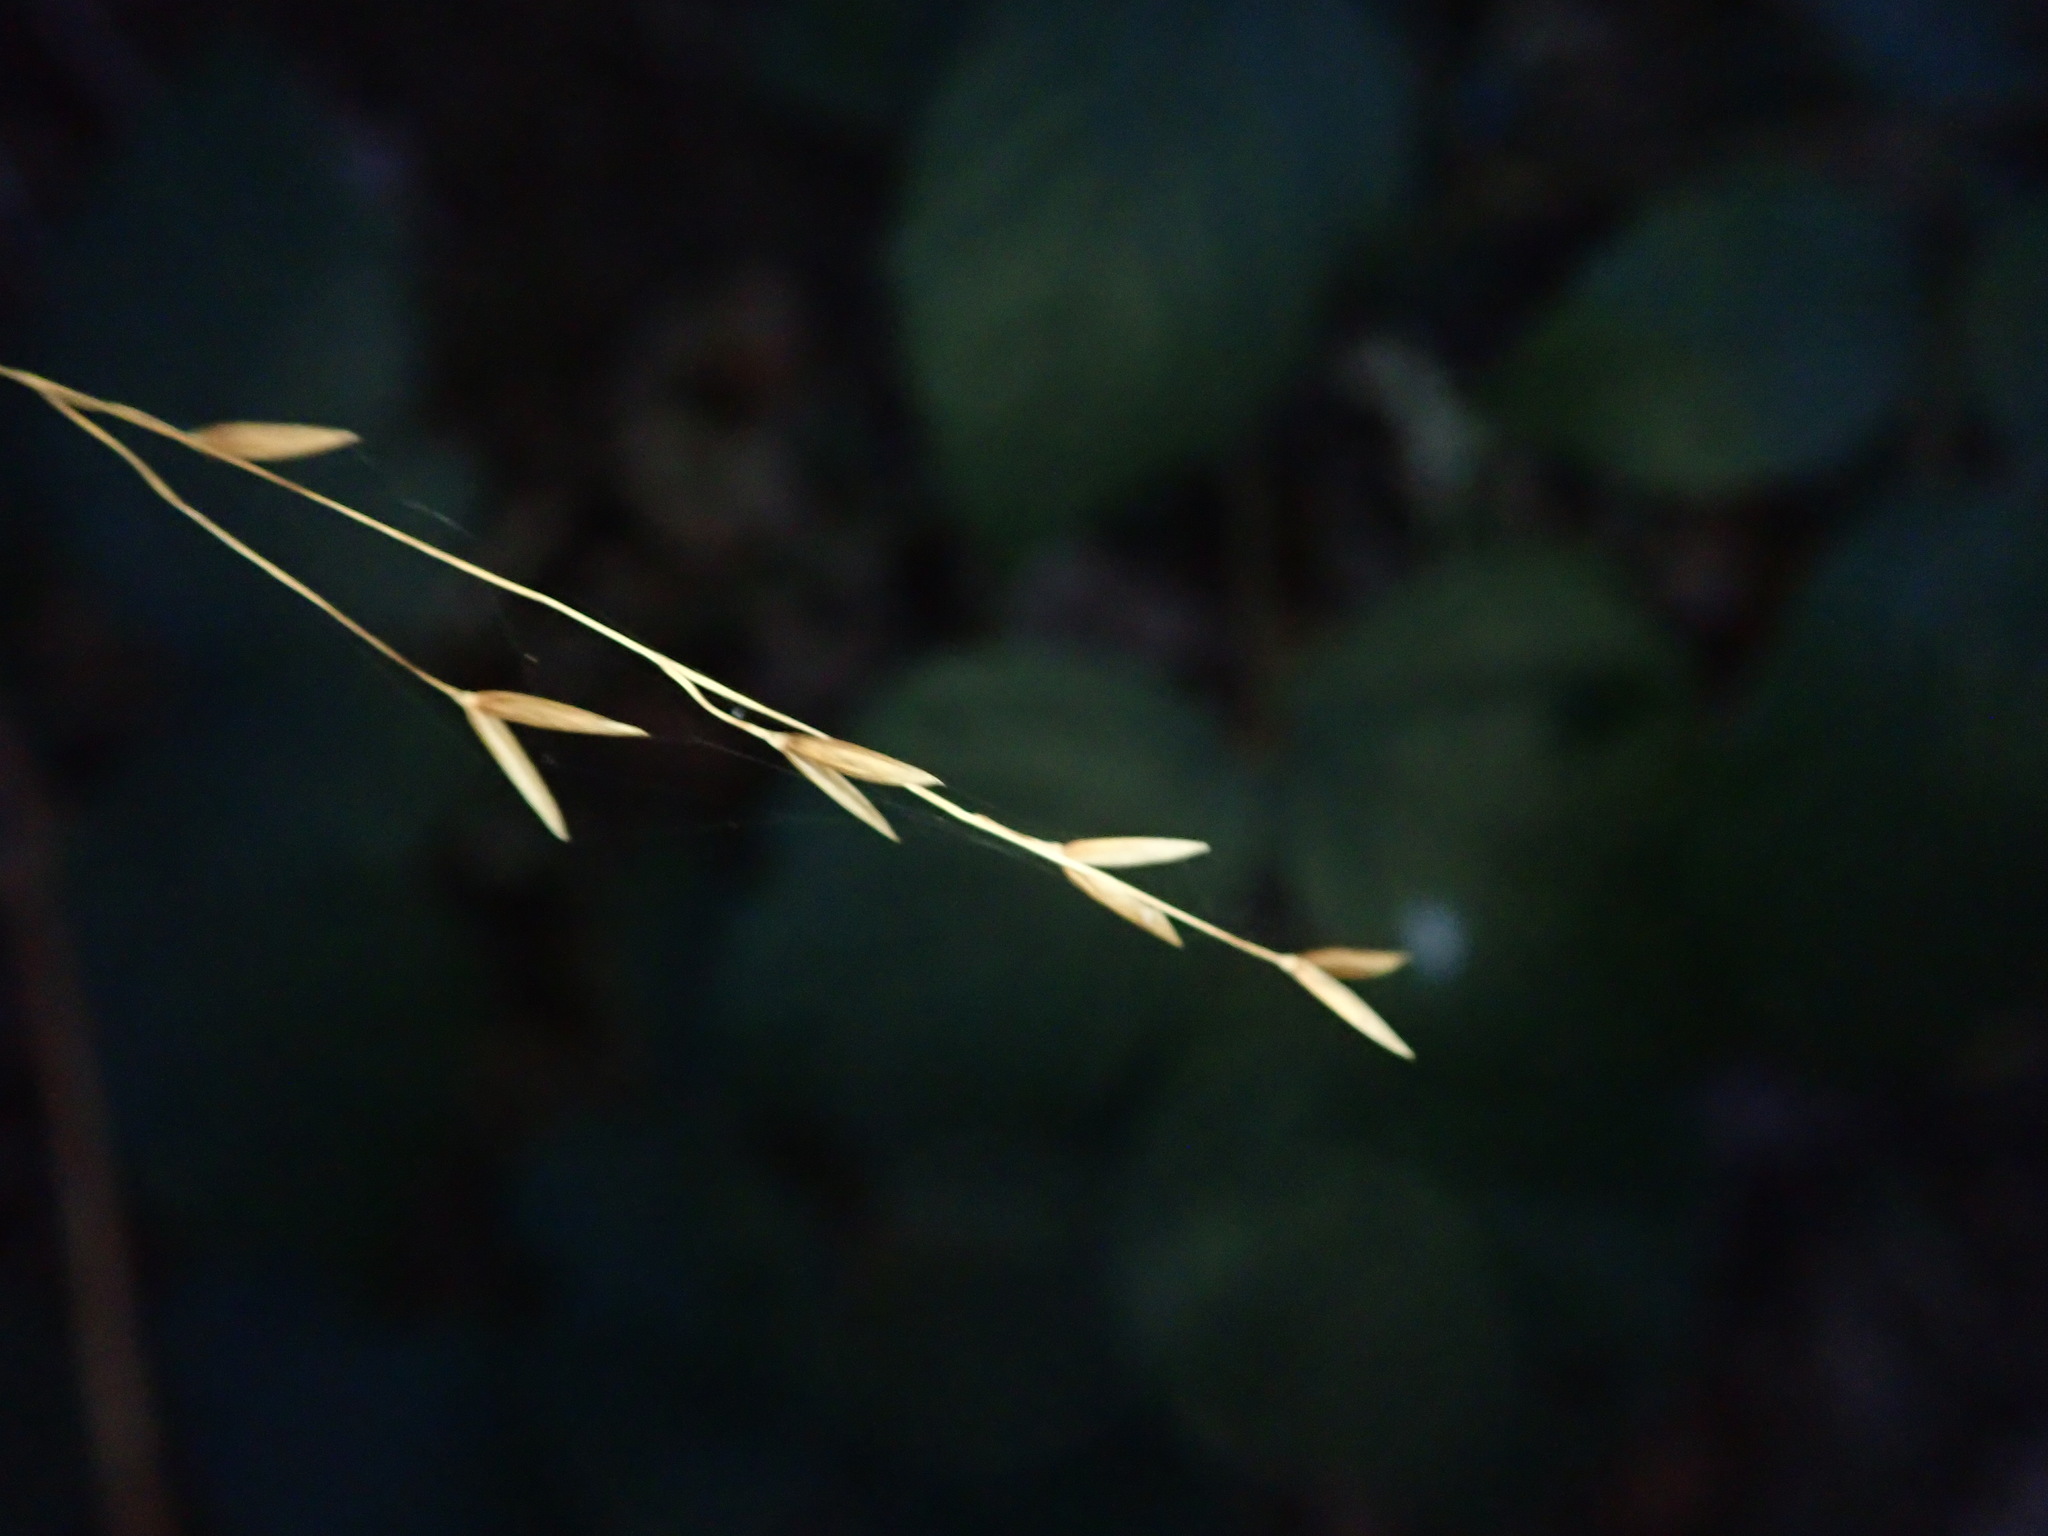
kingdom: Plantae
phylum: Tracheophyta
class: Liliopsida
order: Poales
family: Poaceae
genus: Melica
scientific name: Melica uniflora
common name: Wood melick
